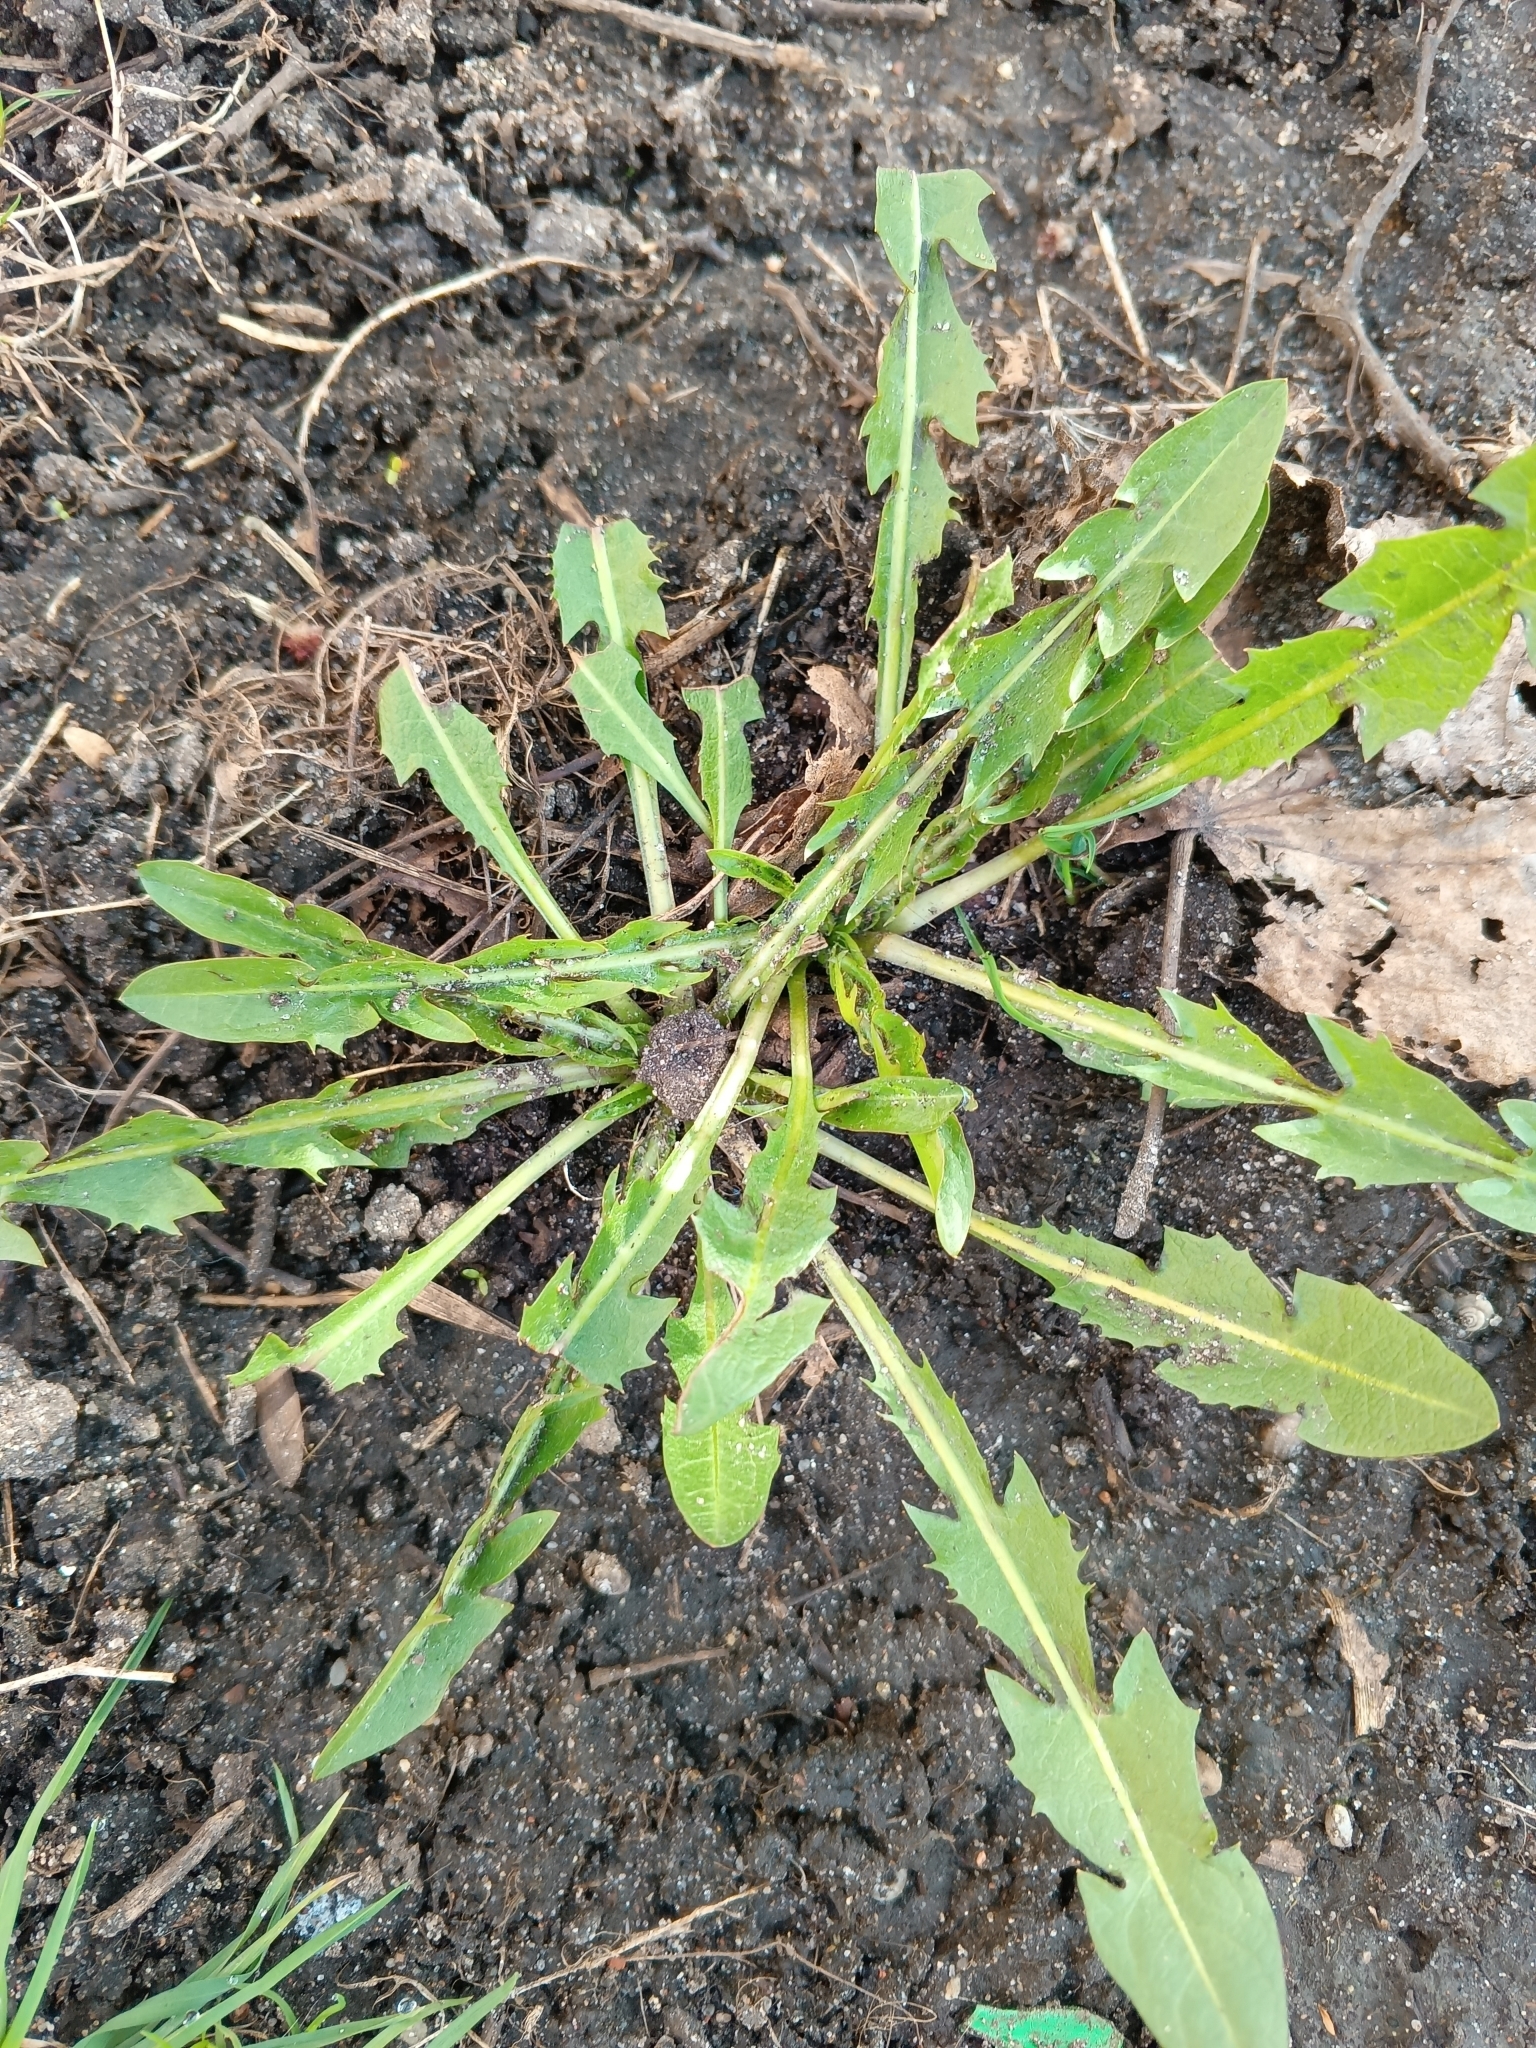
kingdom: Plantae
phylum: Tracheophyta
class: Magnoliopsida
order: Asterales
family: Asteraceae
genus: Taraxacum
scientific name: Taraxacum officinale
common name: Common dandelion
